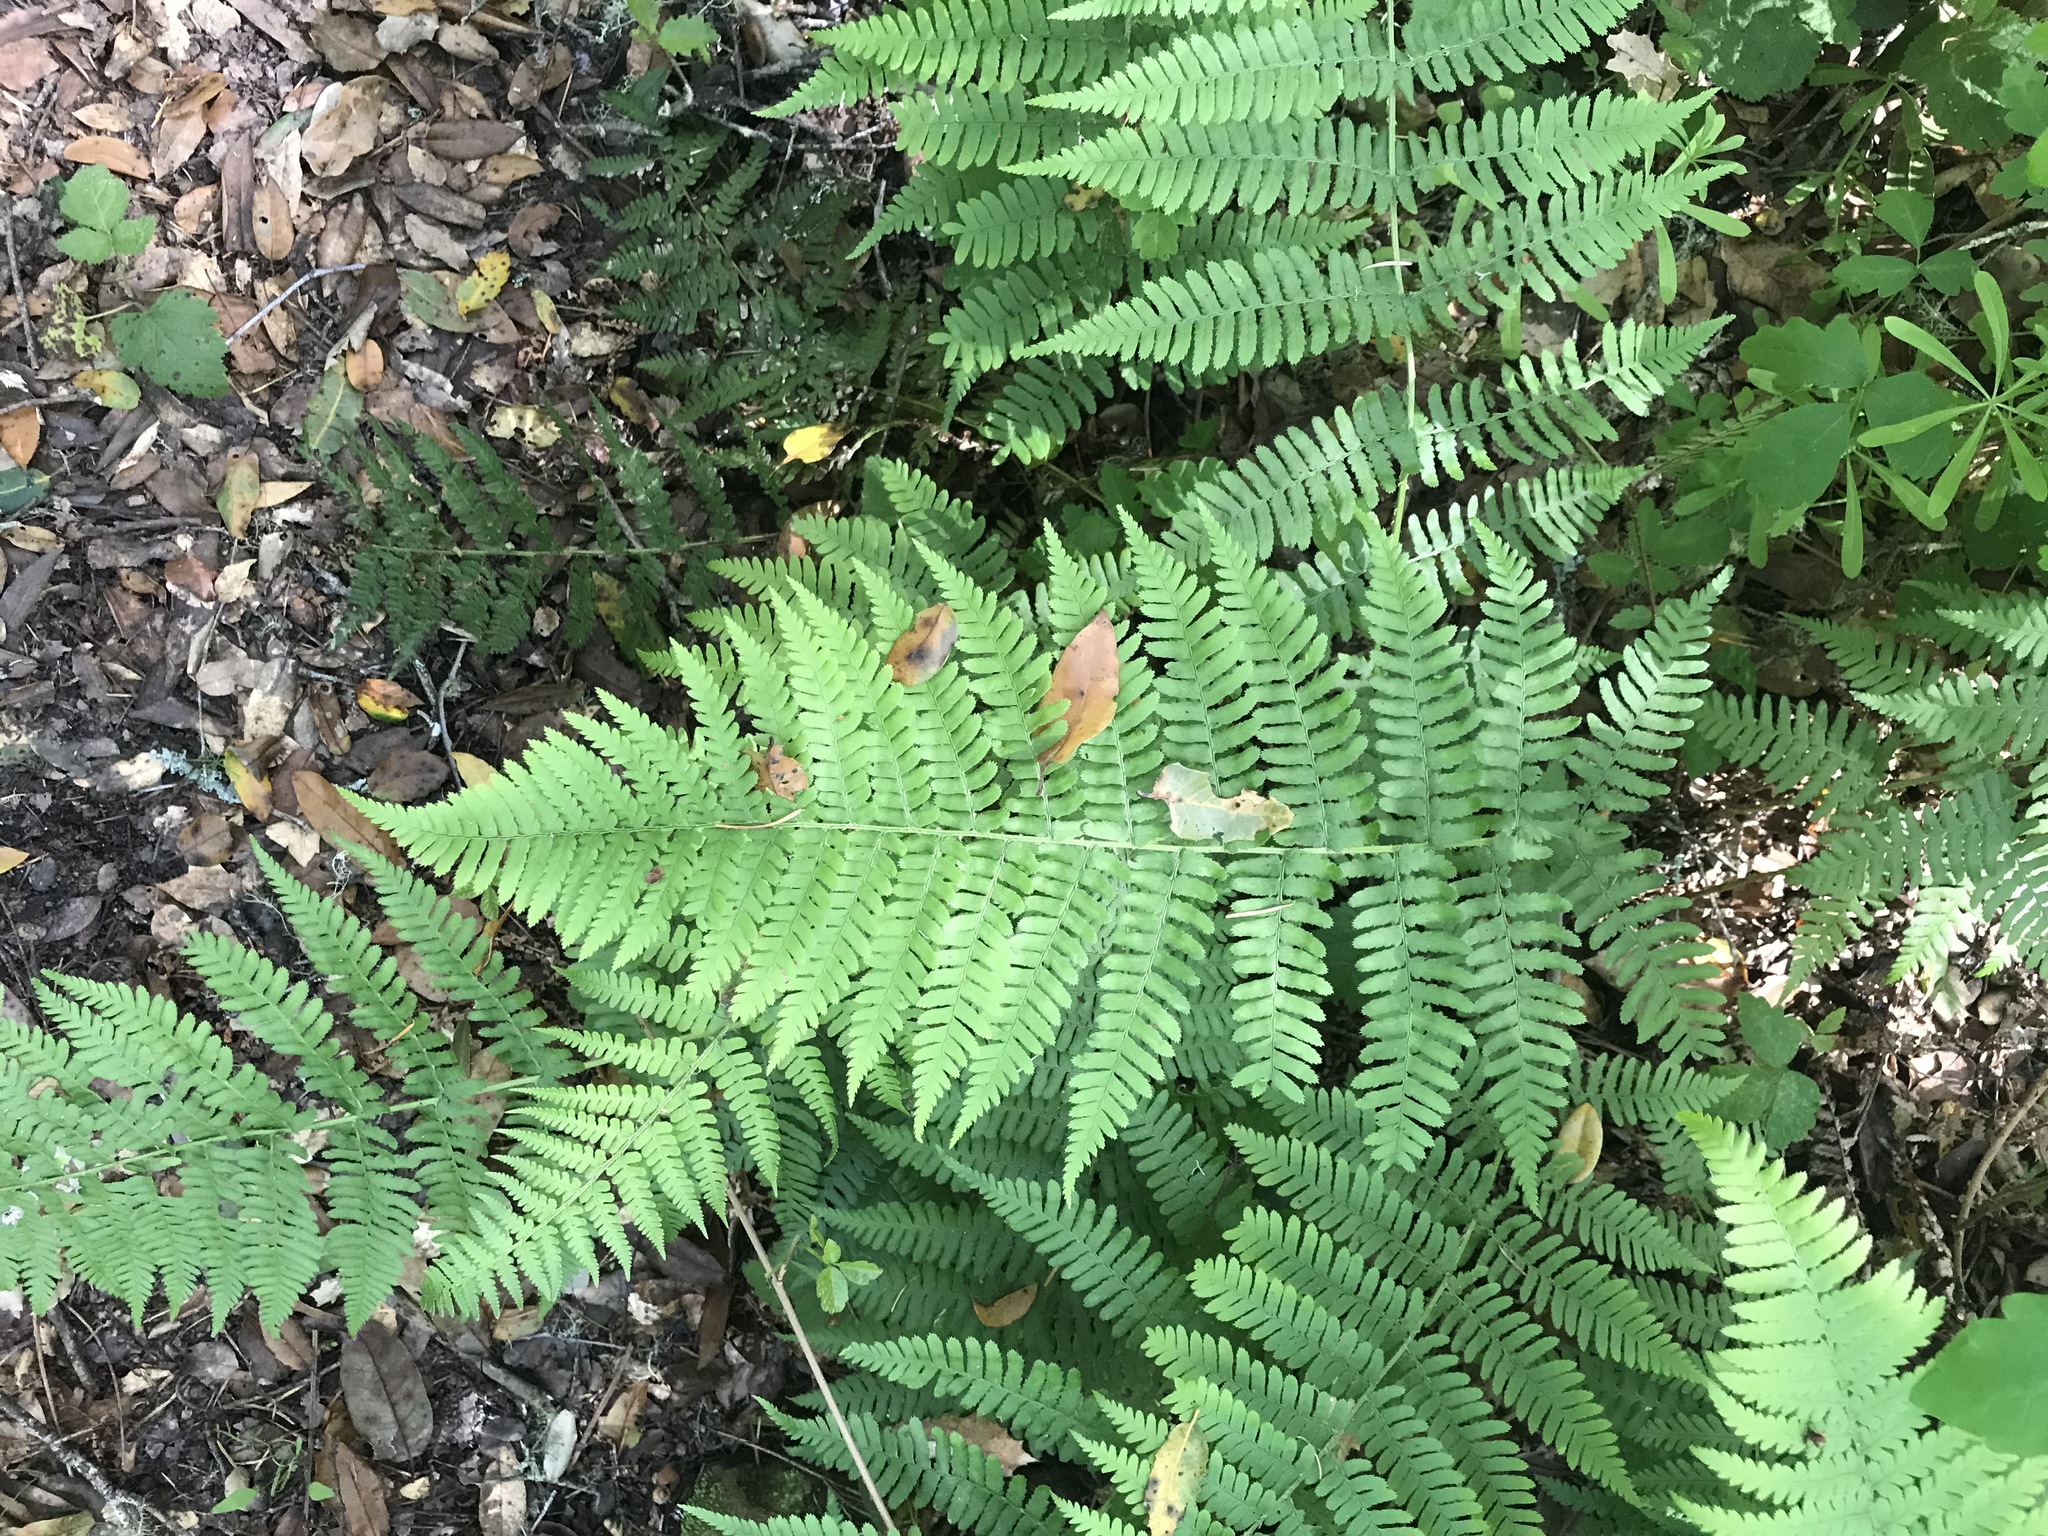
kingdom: Plantae
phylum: Tracheophyta
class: Polypodiopsida
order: Polypodiales
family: Dryopteridaceae
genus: Dryopteris
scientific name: Dryopteris arguta
